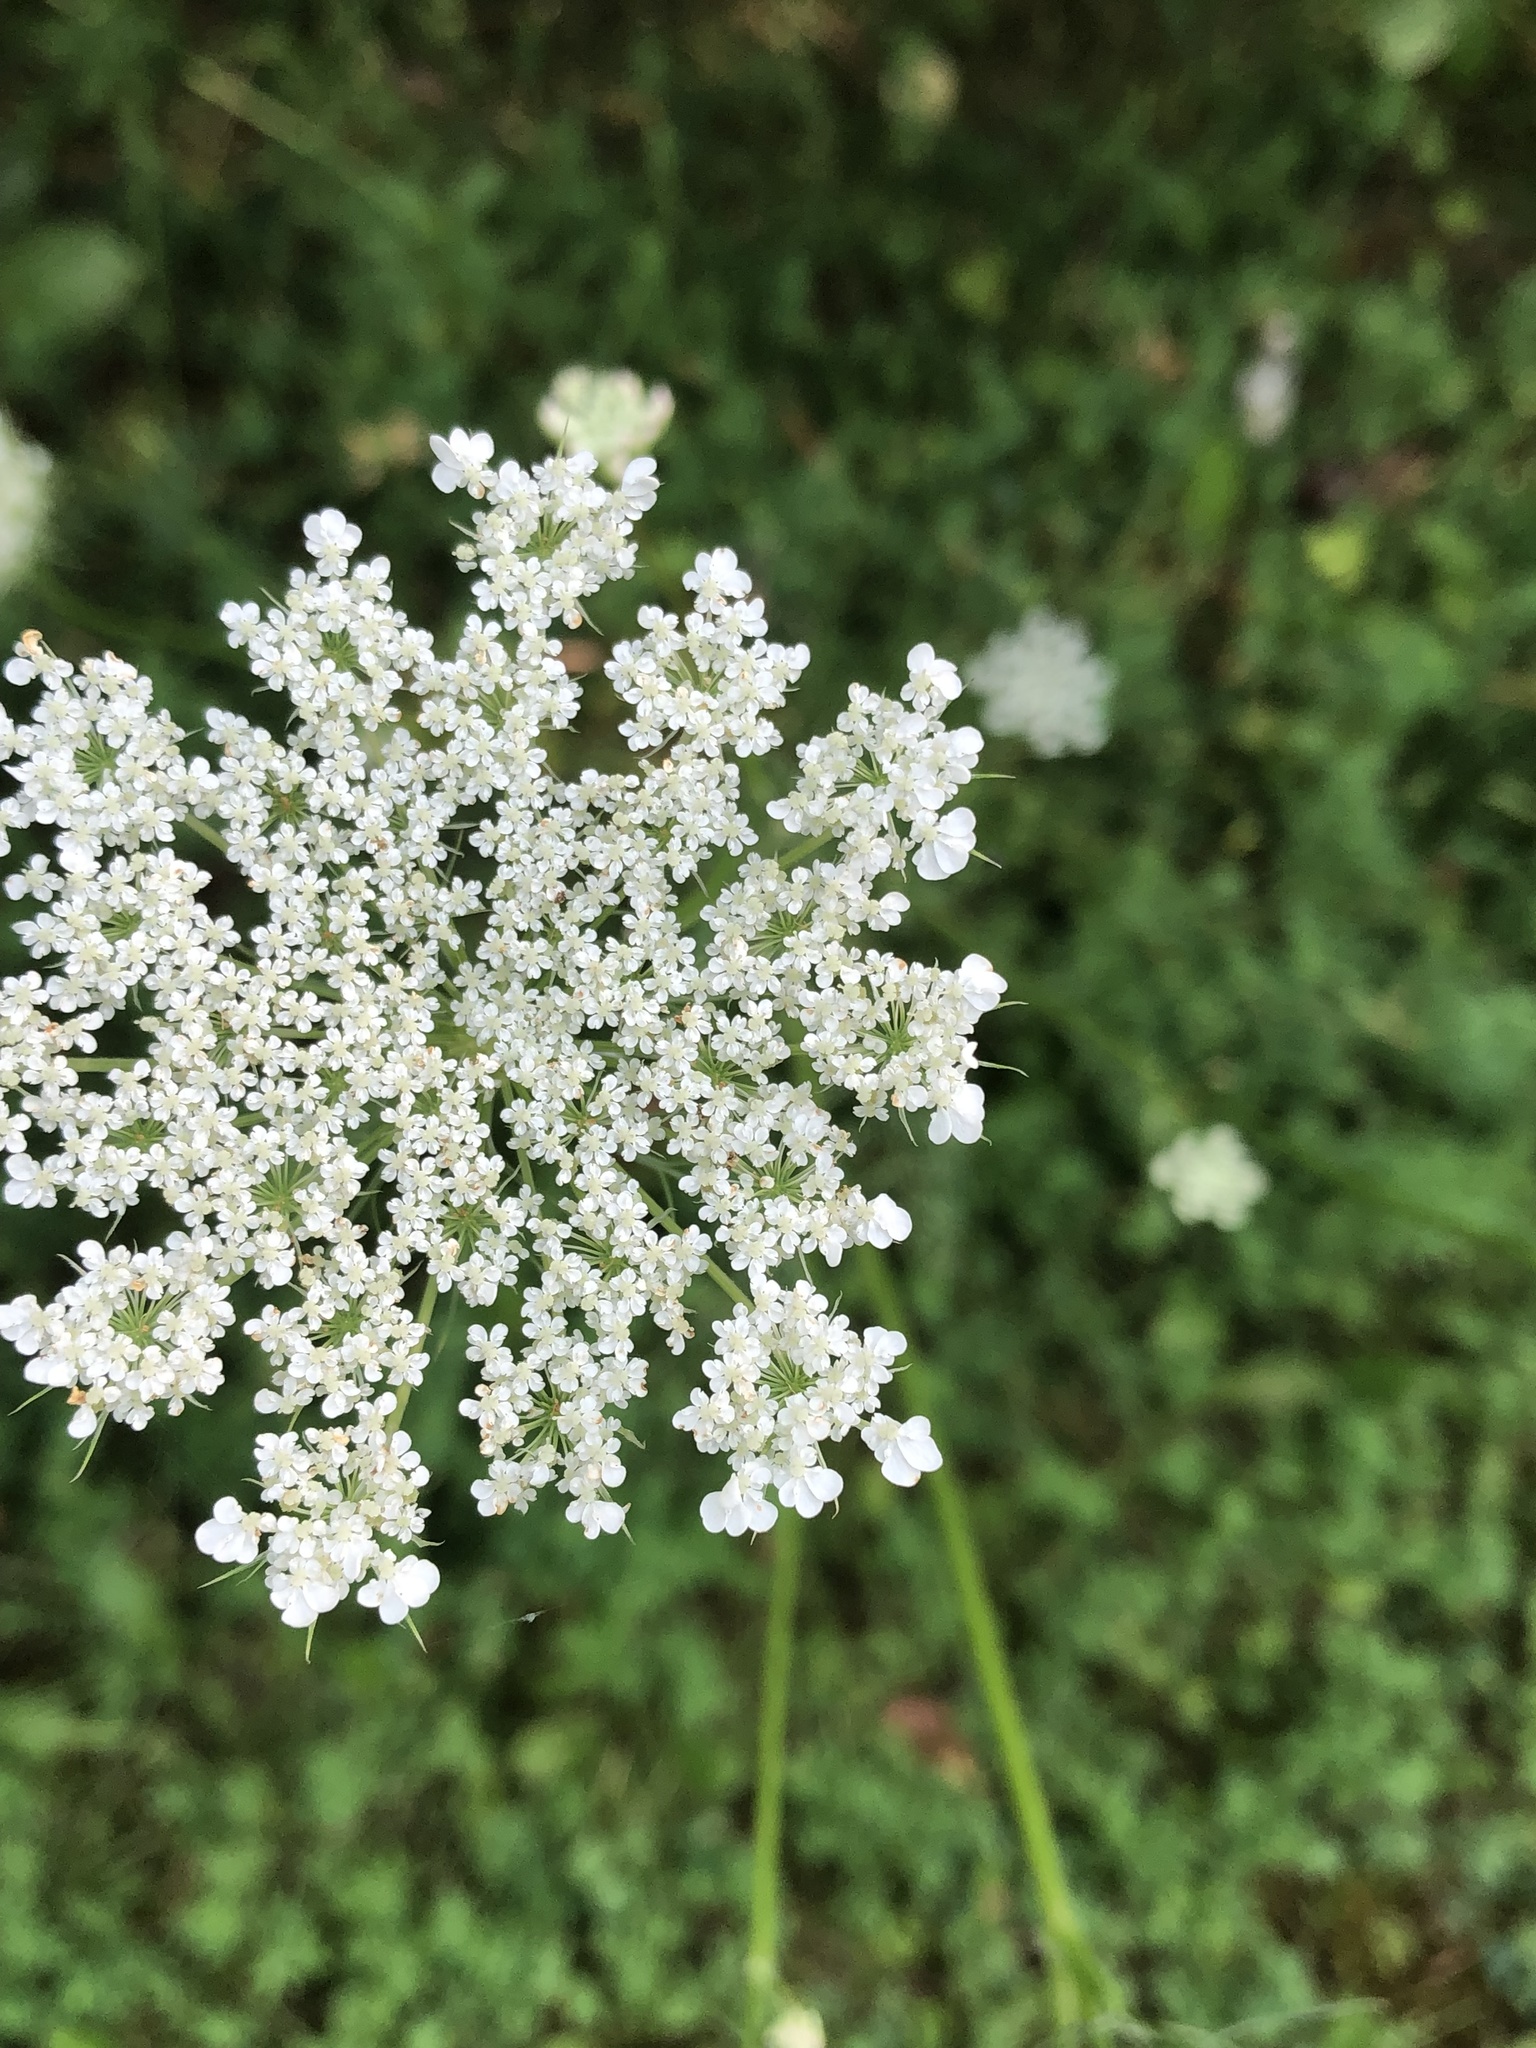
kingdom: Plantae
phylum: Tracheophyta
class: Magnoliopsida
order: Apiales
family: Apiaceae
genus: Daucus
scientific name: Daucus carota
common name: Wild carrot
